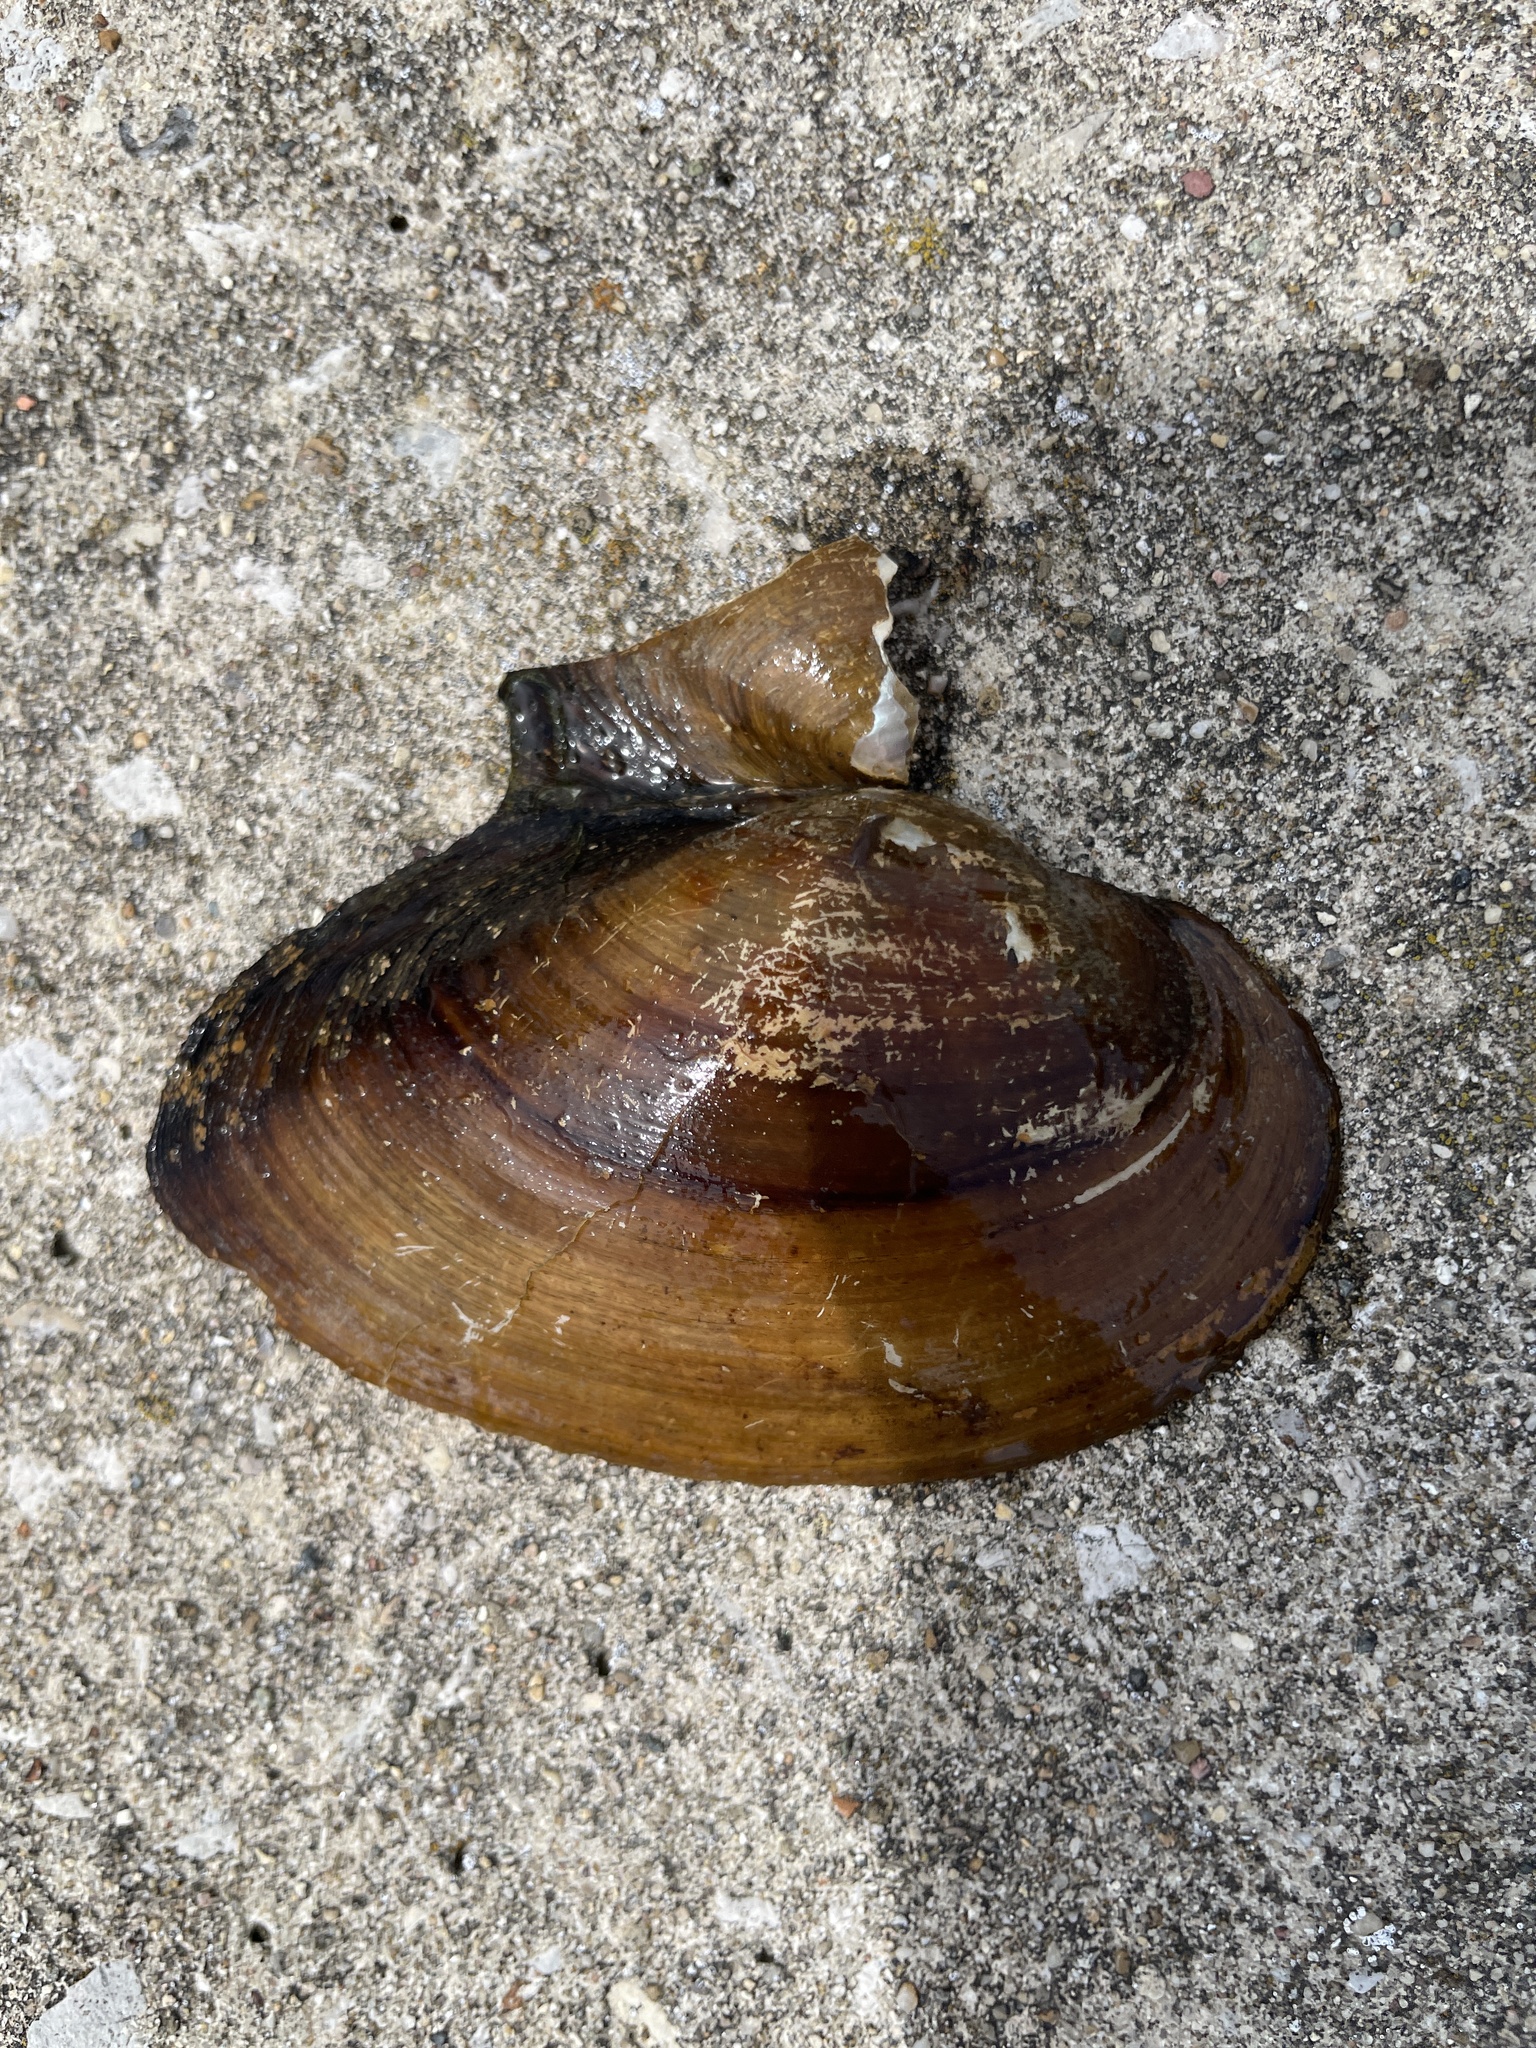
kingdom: Animalia
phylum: Mollusca
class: Bivalvia
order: Unionida
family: Unionidae
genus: Pyganodon
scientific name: Pyganodon grandis
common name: Giant floater
